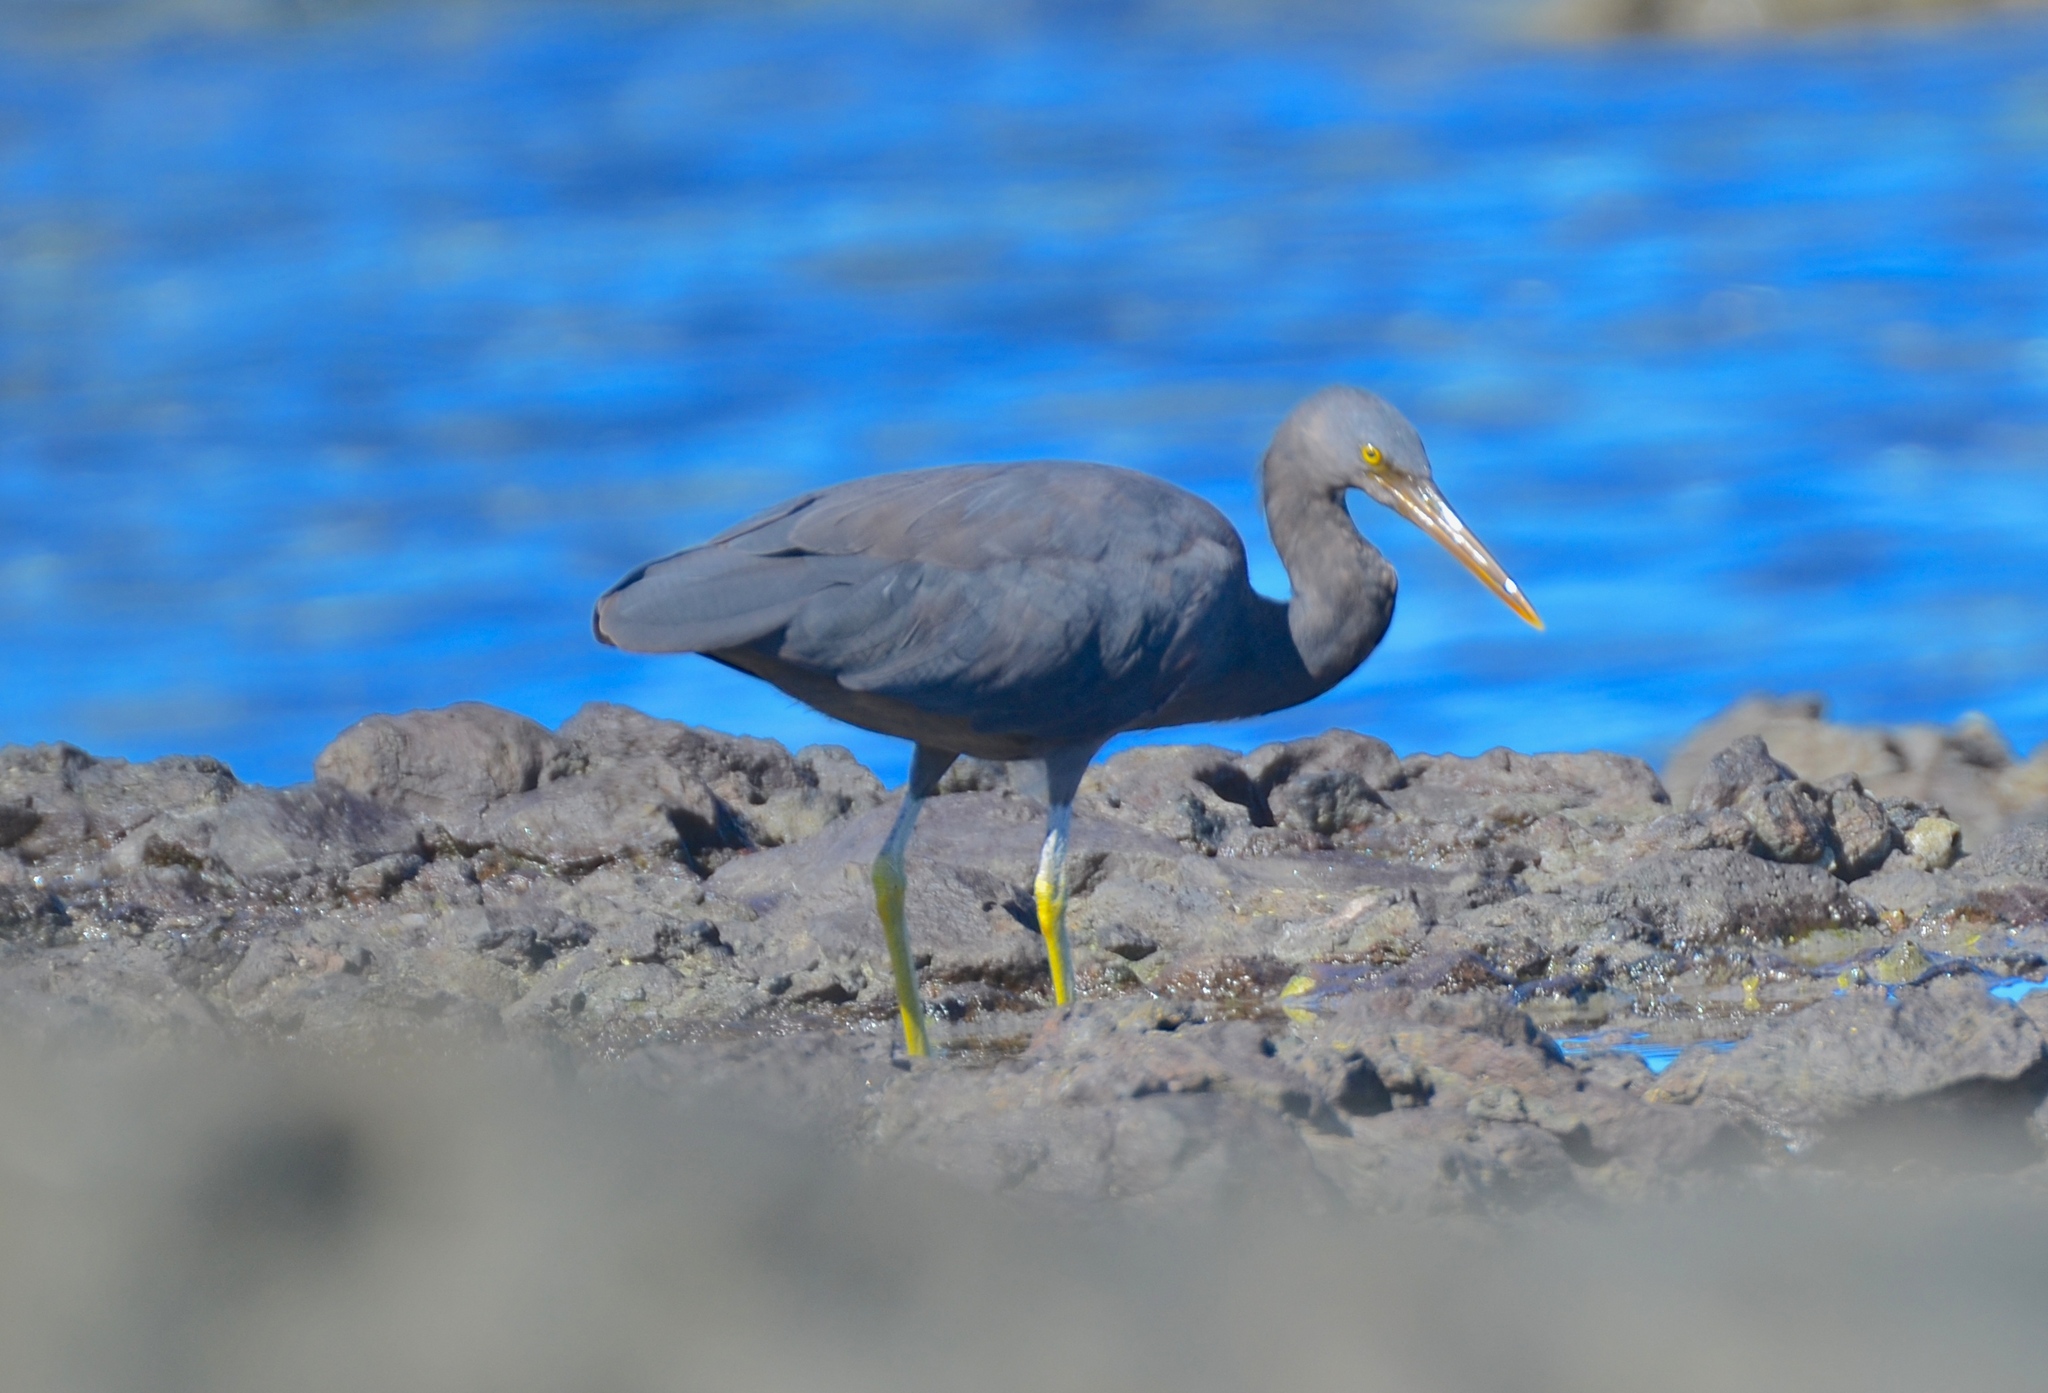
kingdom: Animalia
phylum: Chordata
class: Aves
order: Pelecaniformes
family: Ardeidae
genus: Egretta
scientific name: Egretta sacra
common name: Pacific reef heron
